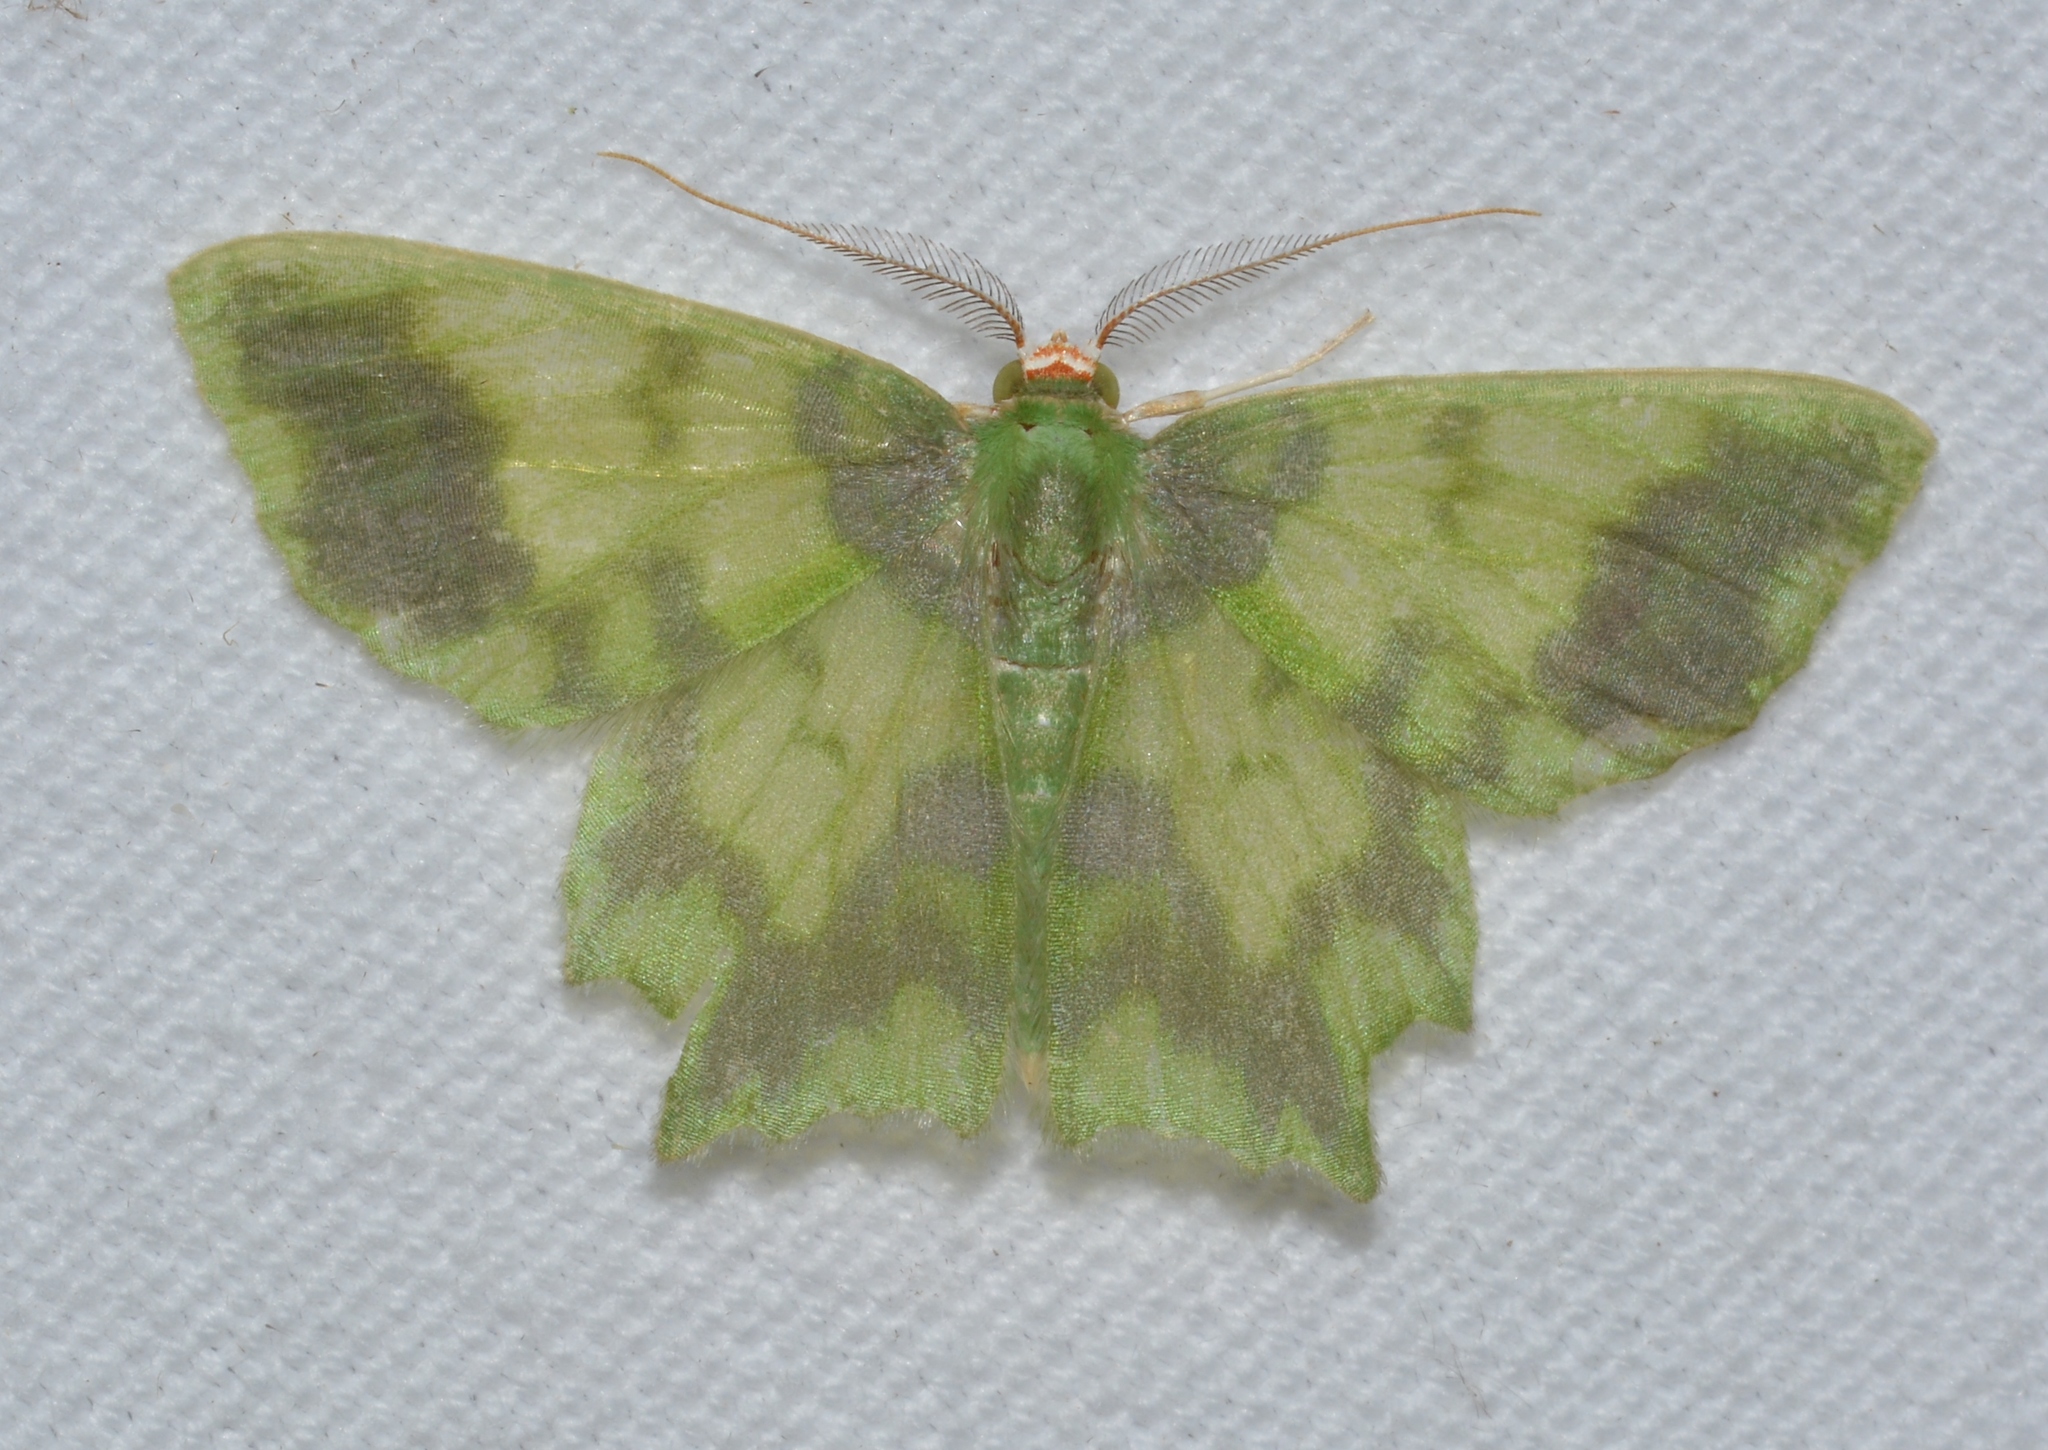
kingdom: Animalia
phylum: Arthropoda
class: Insecta
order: Lepidoptera
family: Geometridae
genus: Cathydata
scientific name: Cathydata batina
